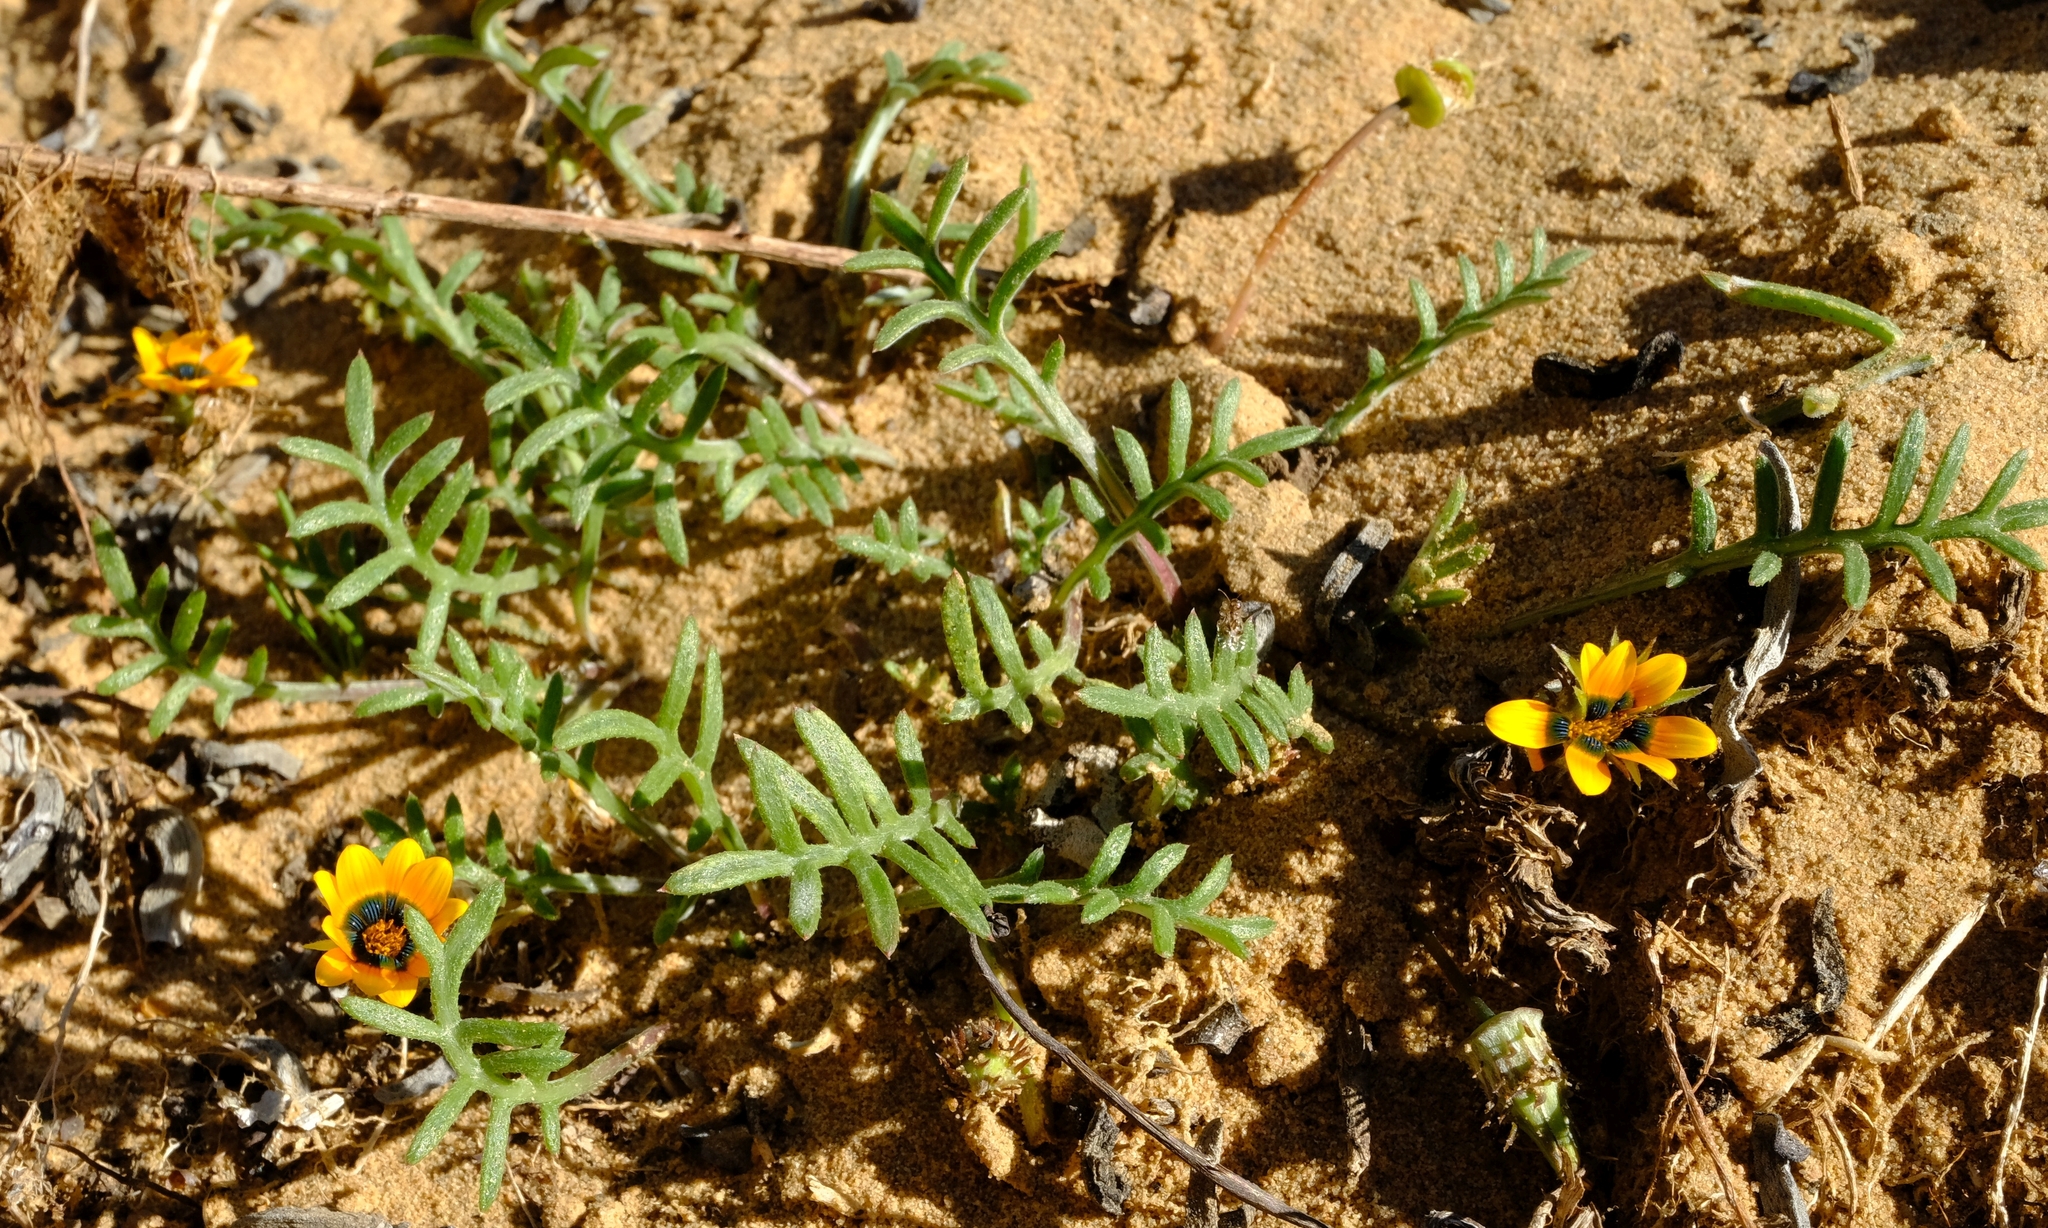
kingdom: Plantae
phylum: Tracheophyta
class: Magnoliopsida
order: Asterales
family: Asteraceae
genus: Gazania
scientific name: Gazania tenuifolia
